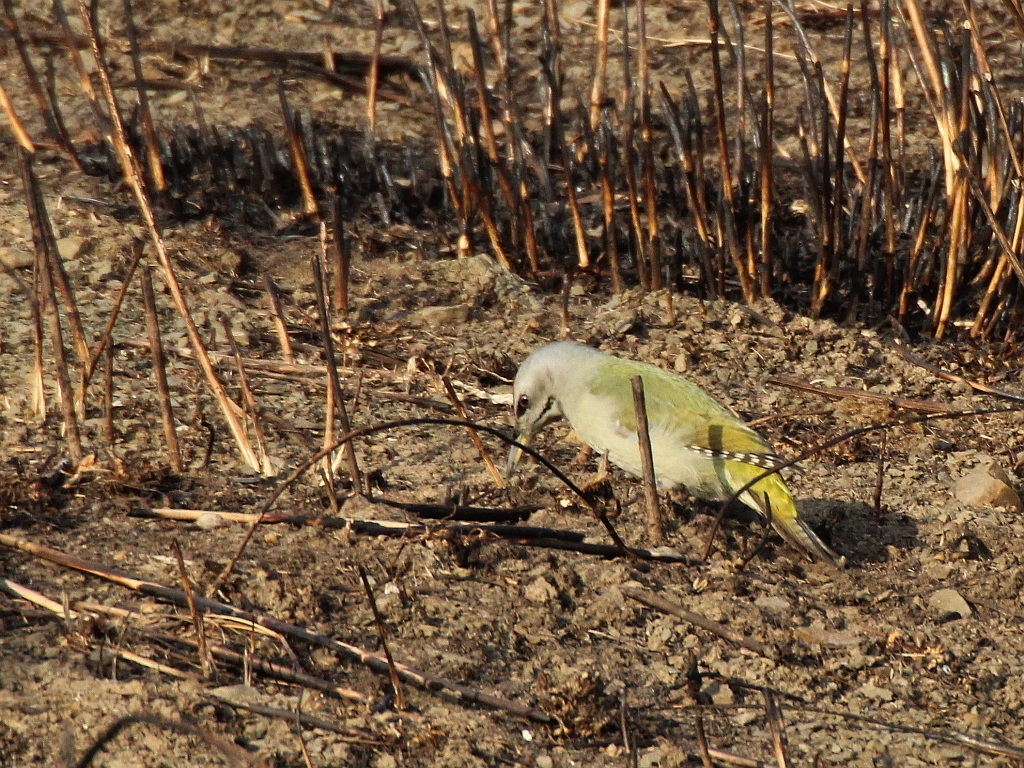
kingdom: Animalia
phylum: Chordata
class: Aves
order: Piciformes
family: Picidae
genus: Picus
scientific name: Picus canus
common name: Grey-headed woodpecker
